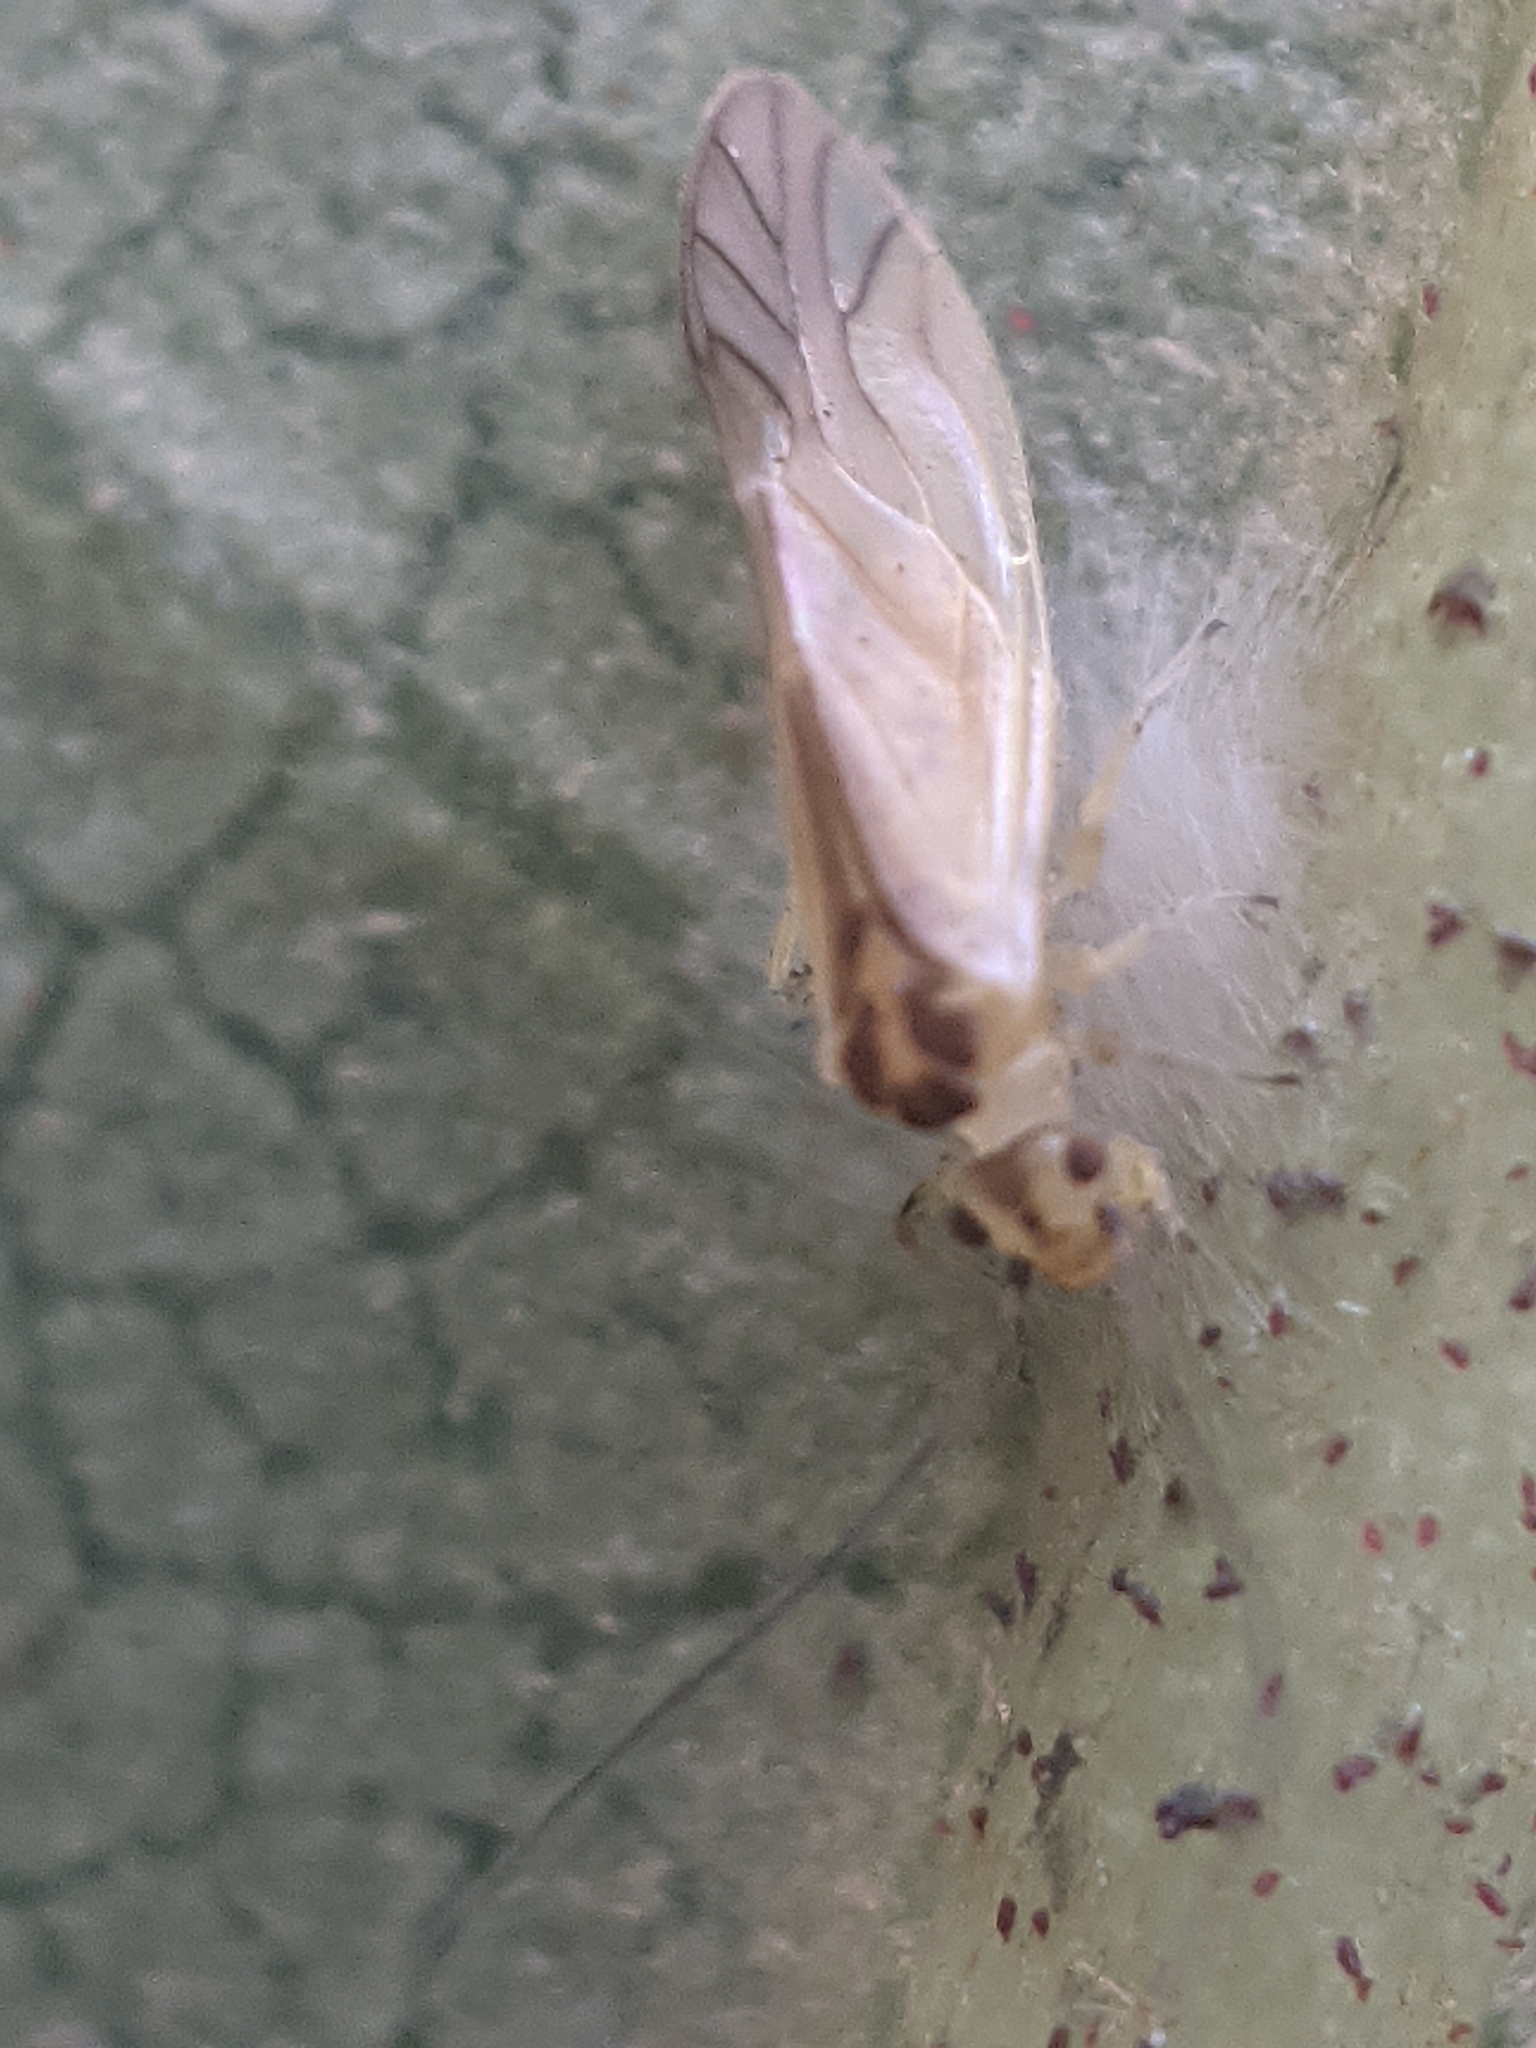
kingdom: Animalia
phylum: Arthropoda
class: Insecta
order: Psocodea
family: Caeciliusidae
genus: Valenzuela
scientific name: Valenzuela flavidus
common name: Yellow barklouse
